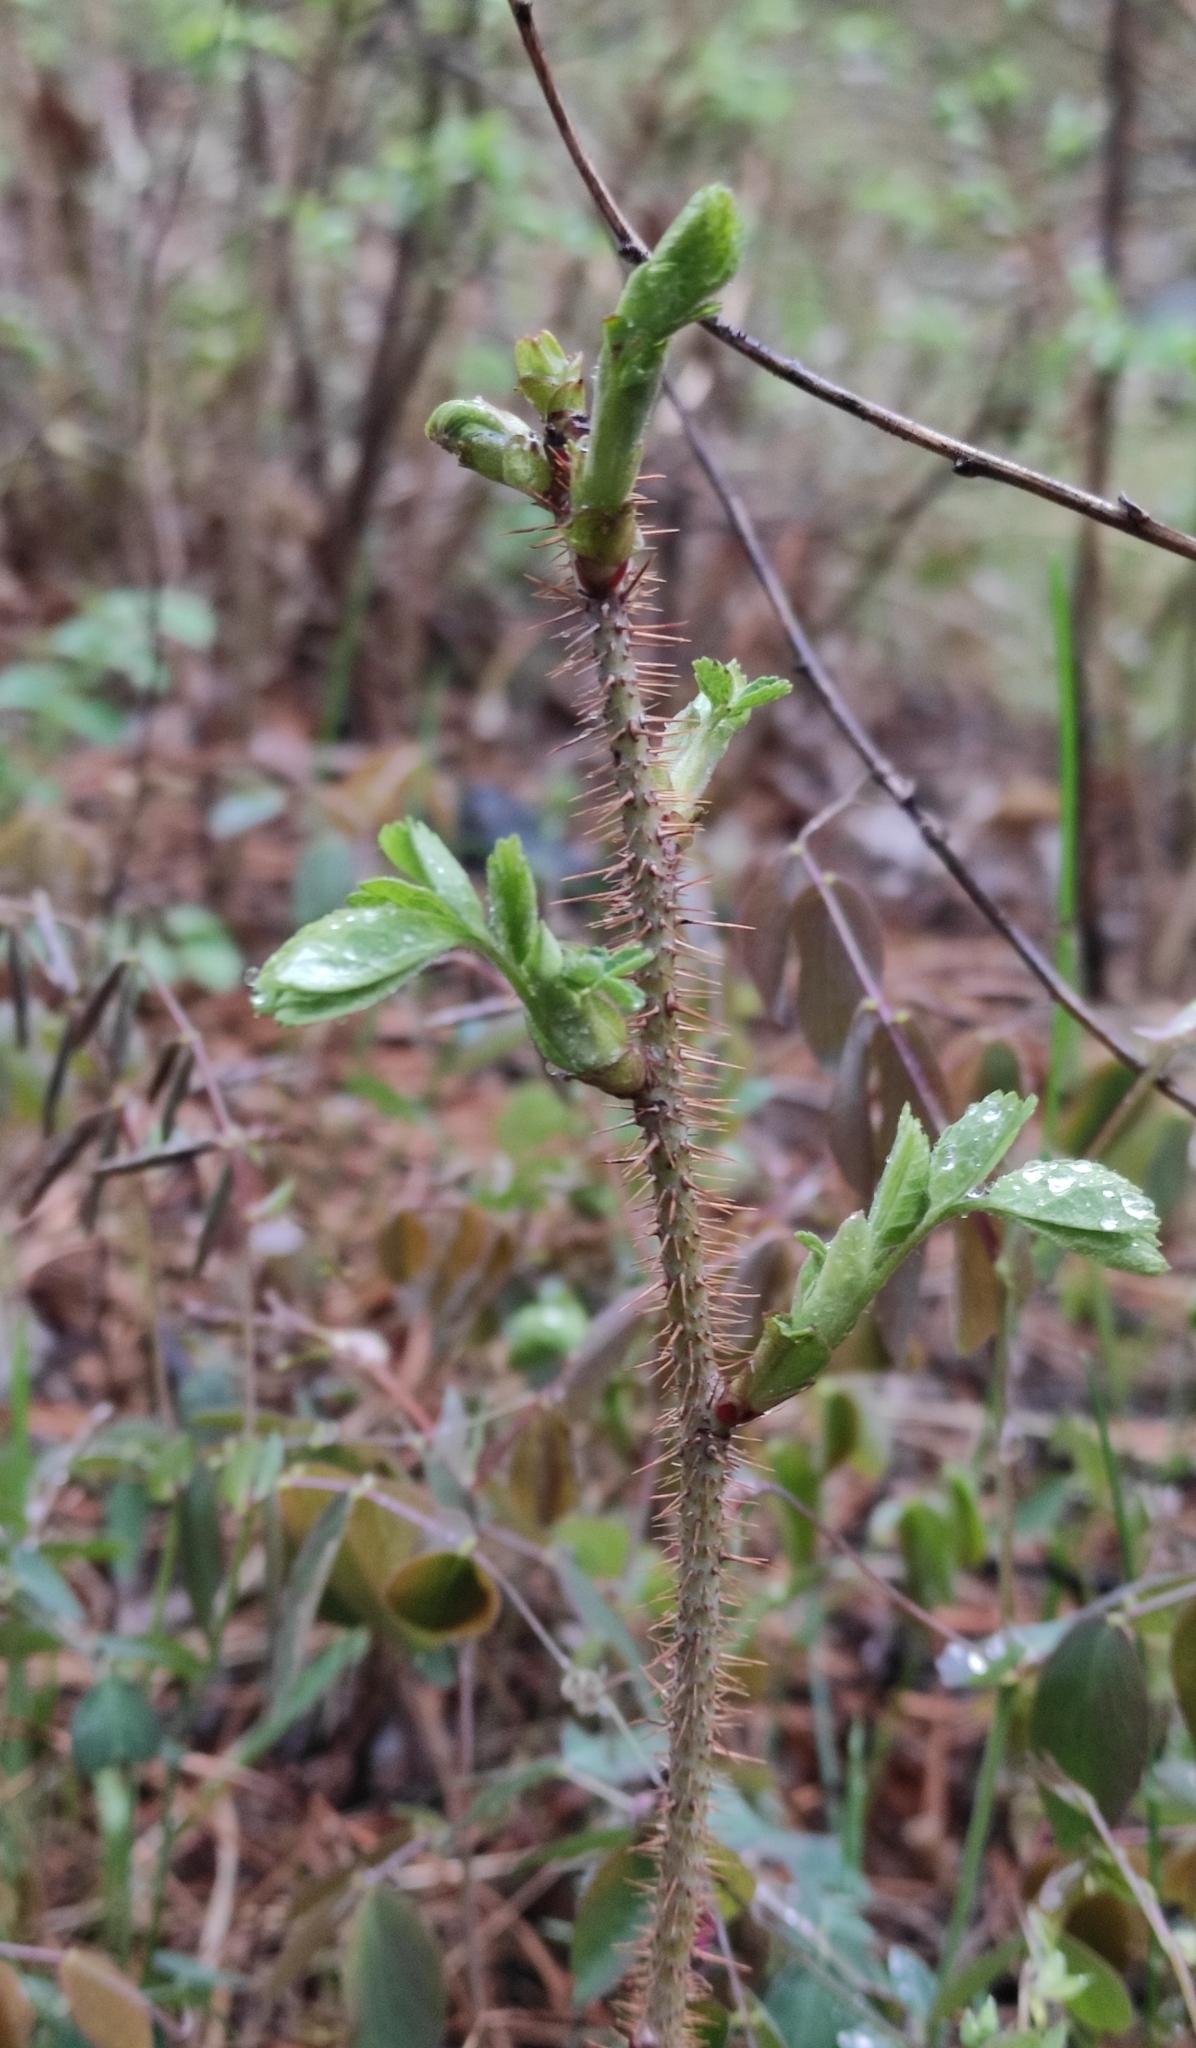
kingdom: Plantae
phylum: Tracheophyta
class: Magnoliopsida
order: Rosales
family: Rosaceae
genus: Rosa
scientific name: Rosa acicularis
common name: Prickly rose
